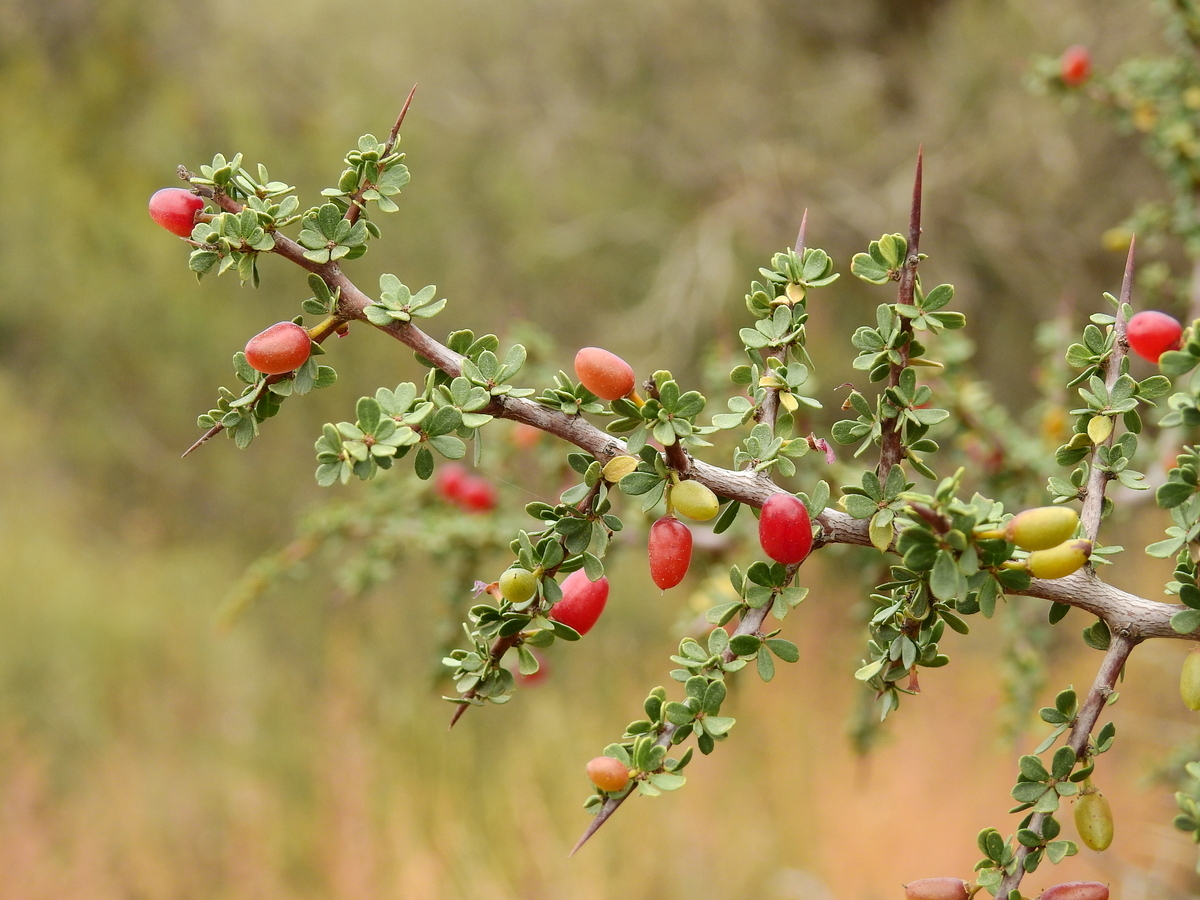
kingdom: Plantae
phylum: Tracheophyta
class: Magnoliopsida
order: Rosales
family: Rhamnaceae
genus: Condalia
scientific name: Condalia microphylla
